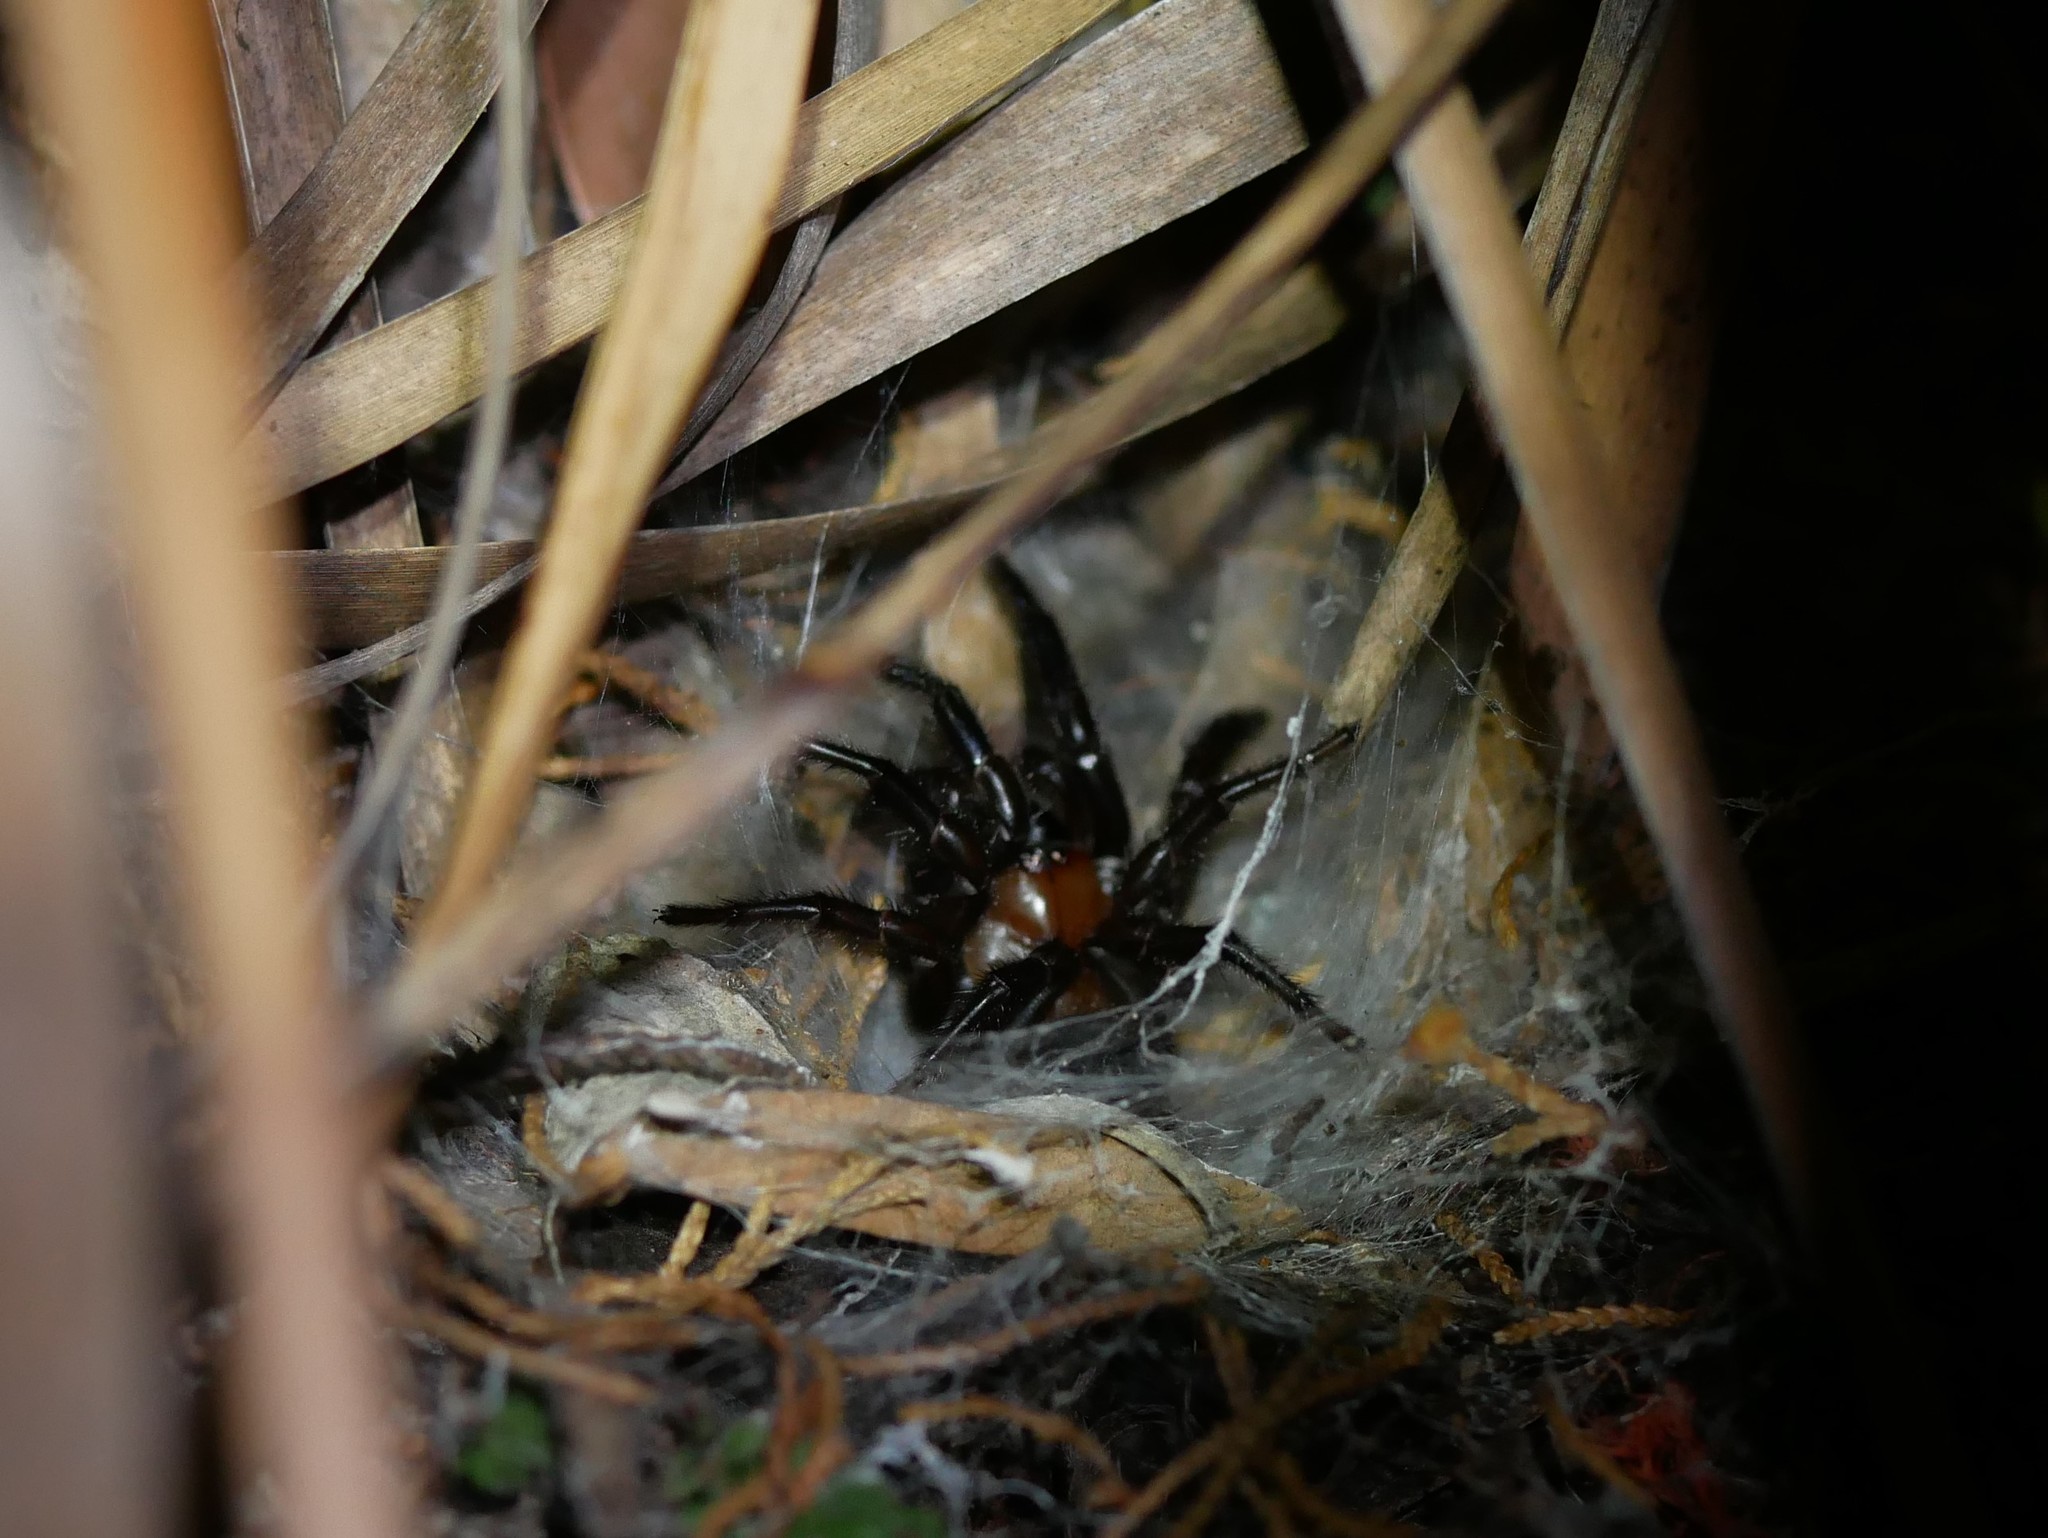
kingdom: Animalia
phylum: Arthropoda
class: Arachnida
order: Araneae
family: Porrhothelidae
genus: Porrhothele
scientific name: Porrhothele antipodiana
